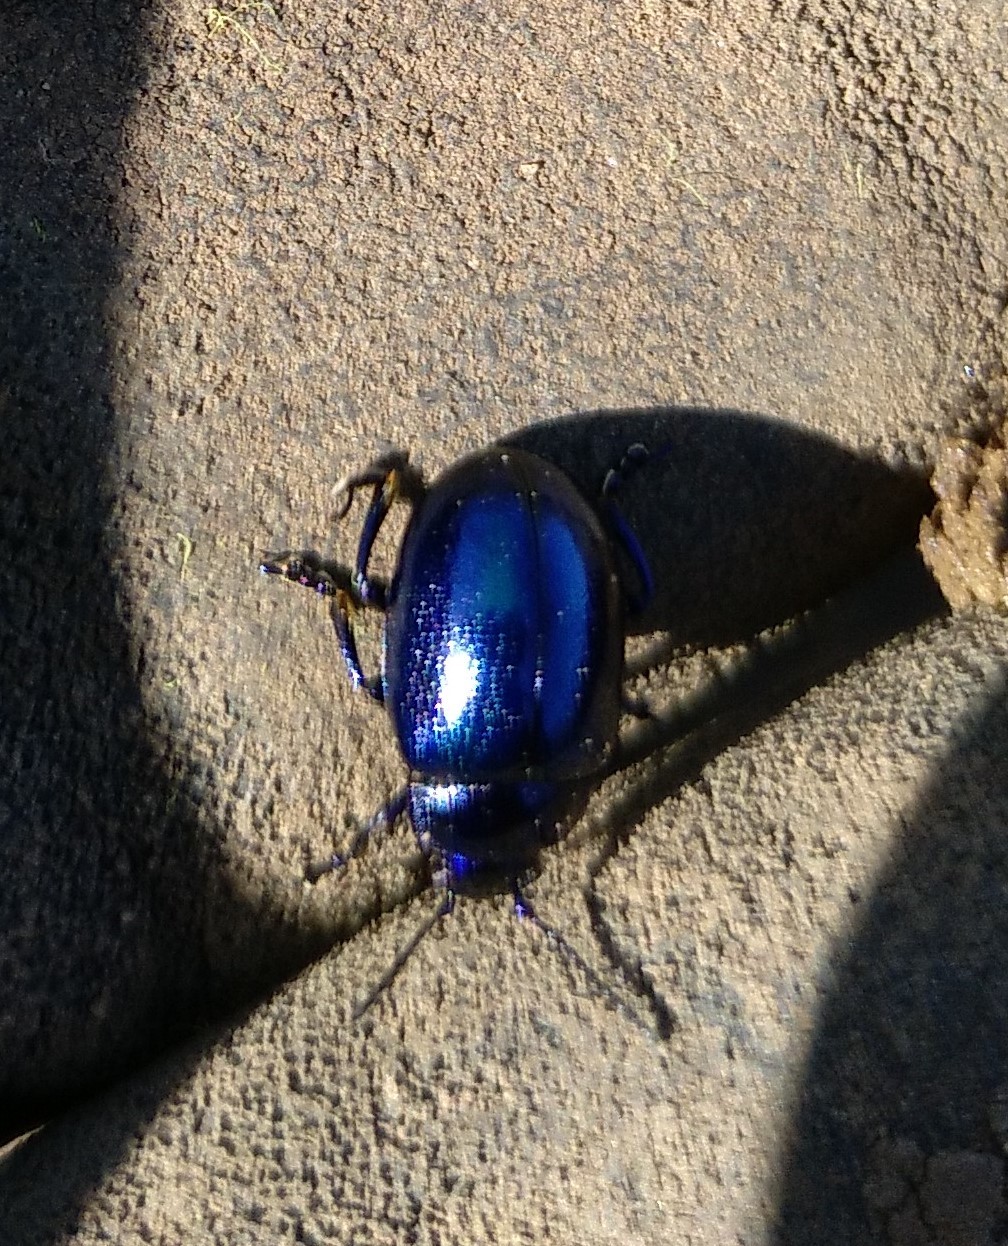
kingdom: Animalia
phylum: Arthropoda
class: Insecta
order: Coleoptera
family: Chrysomelidae
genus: Chrysolina
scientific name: Chrysolina coerulans
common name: Blue mint beetle
